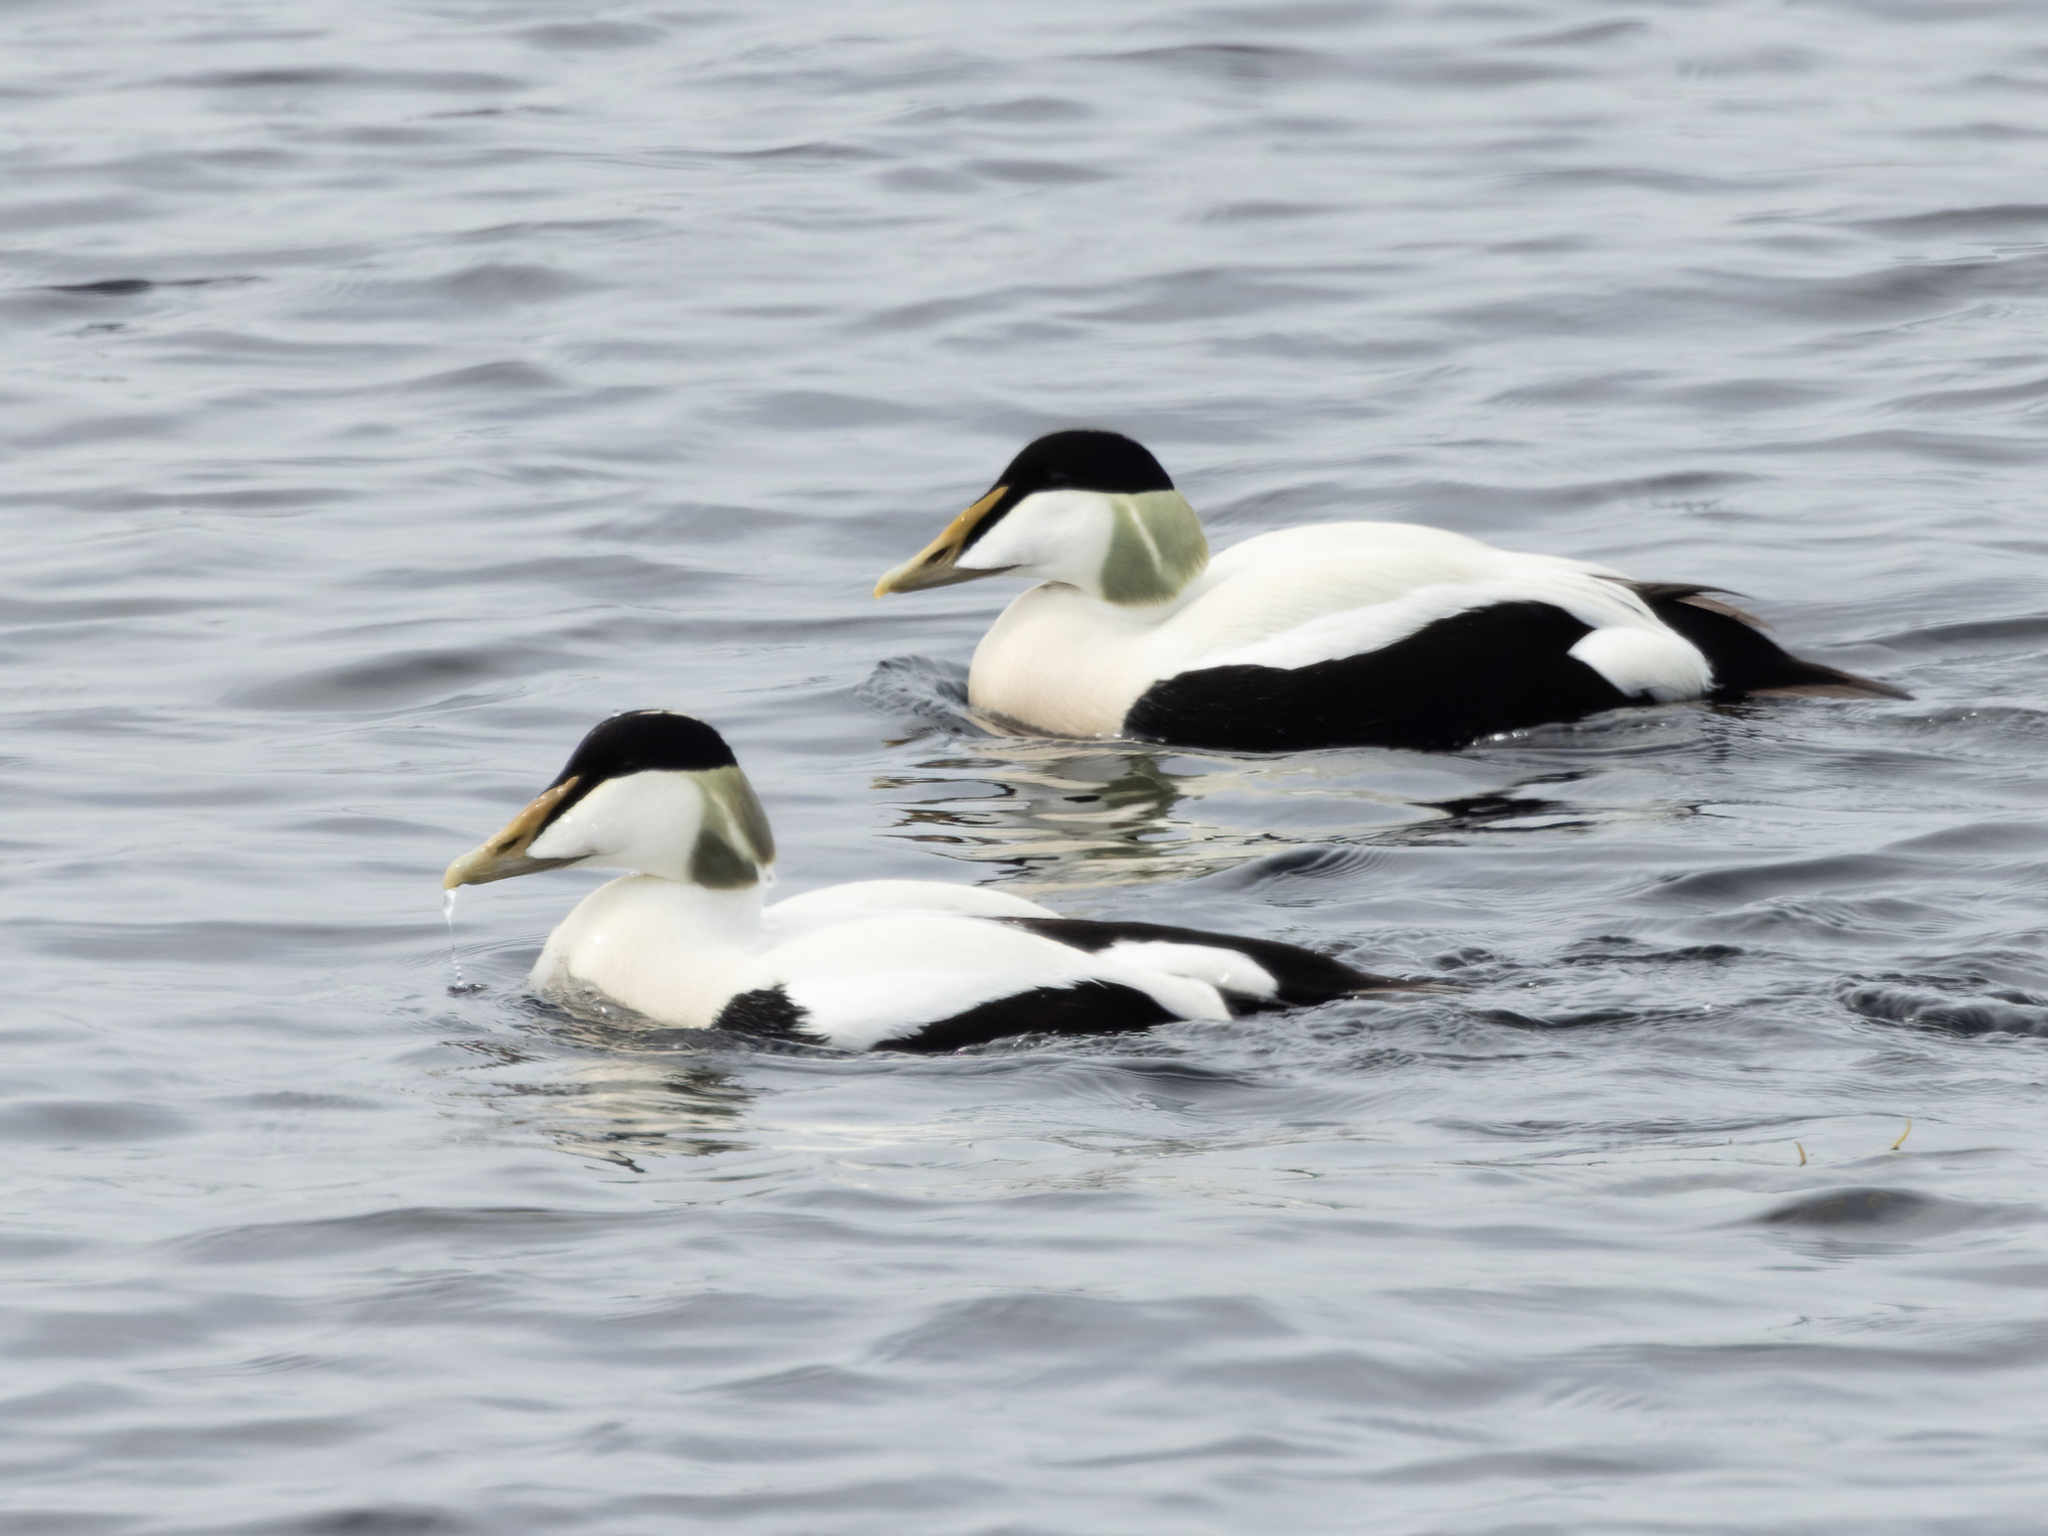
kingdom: Animalia
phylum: Chordata
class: Aves
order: Anseriformes
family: Anatidae
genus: Somateria
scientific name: Somateria mollissima
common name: Common eider
